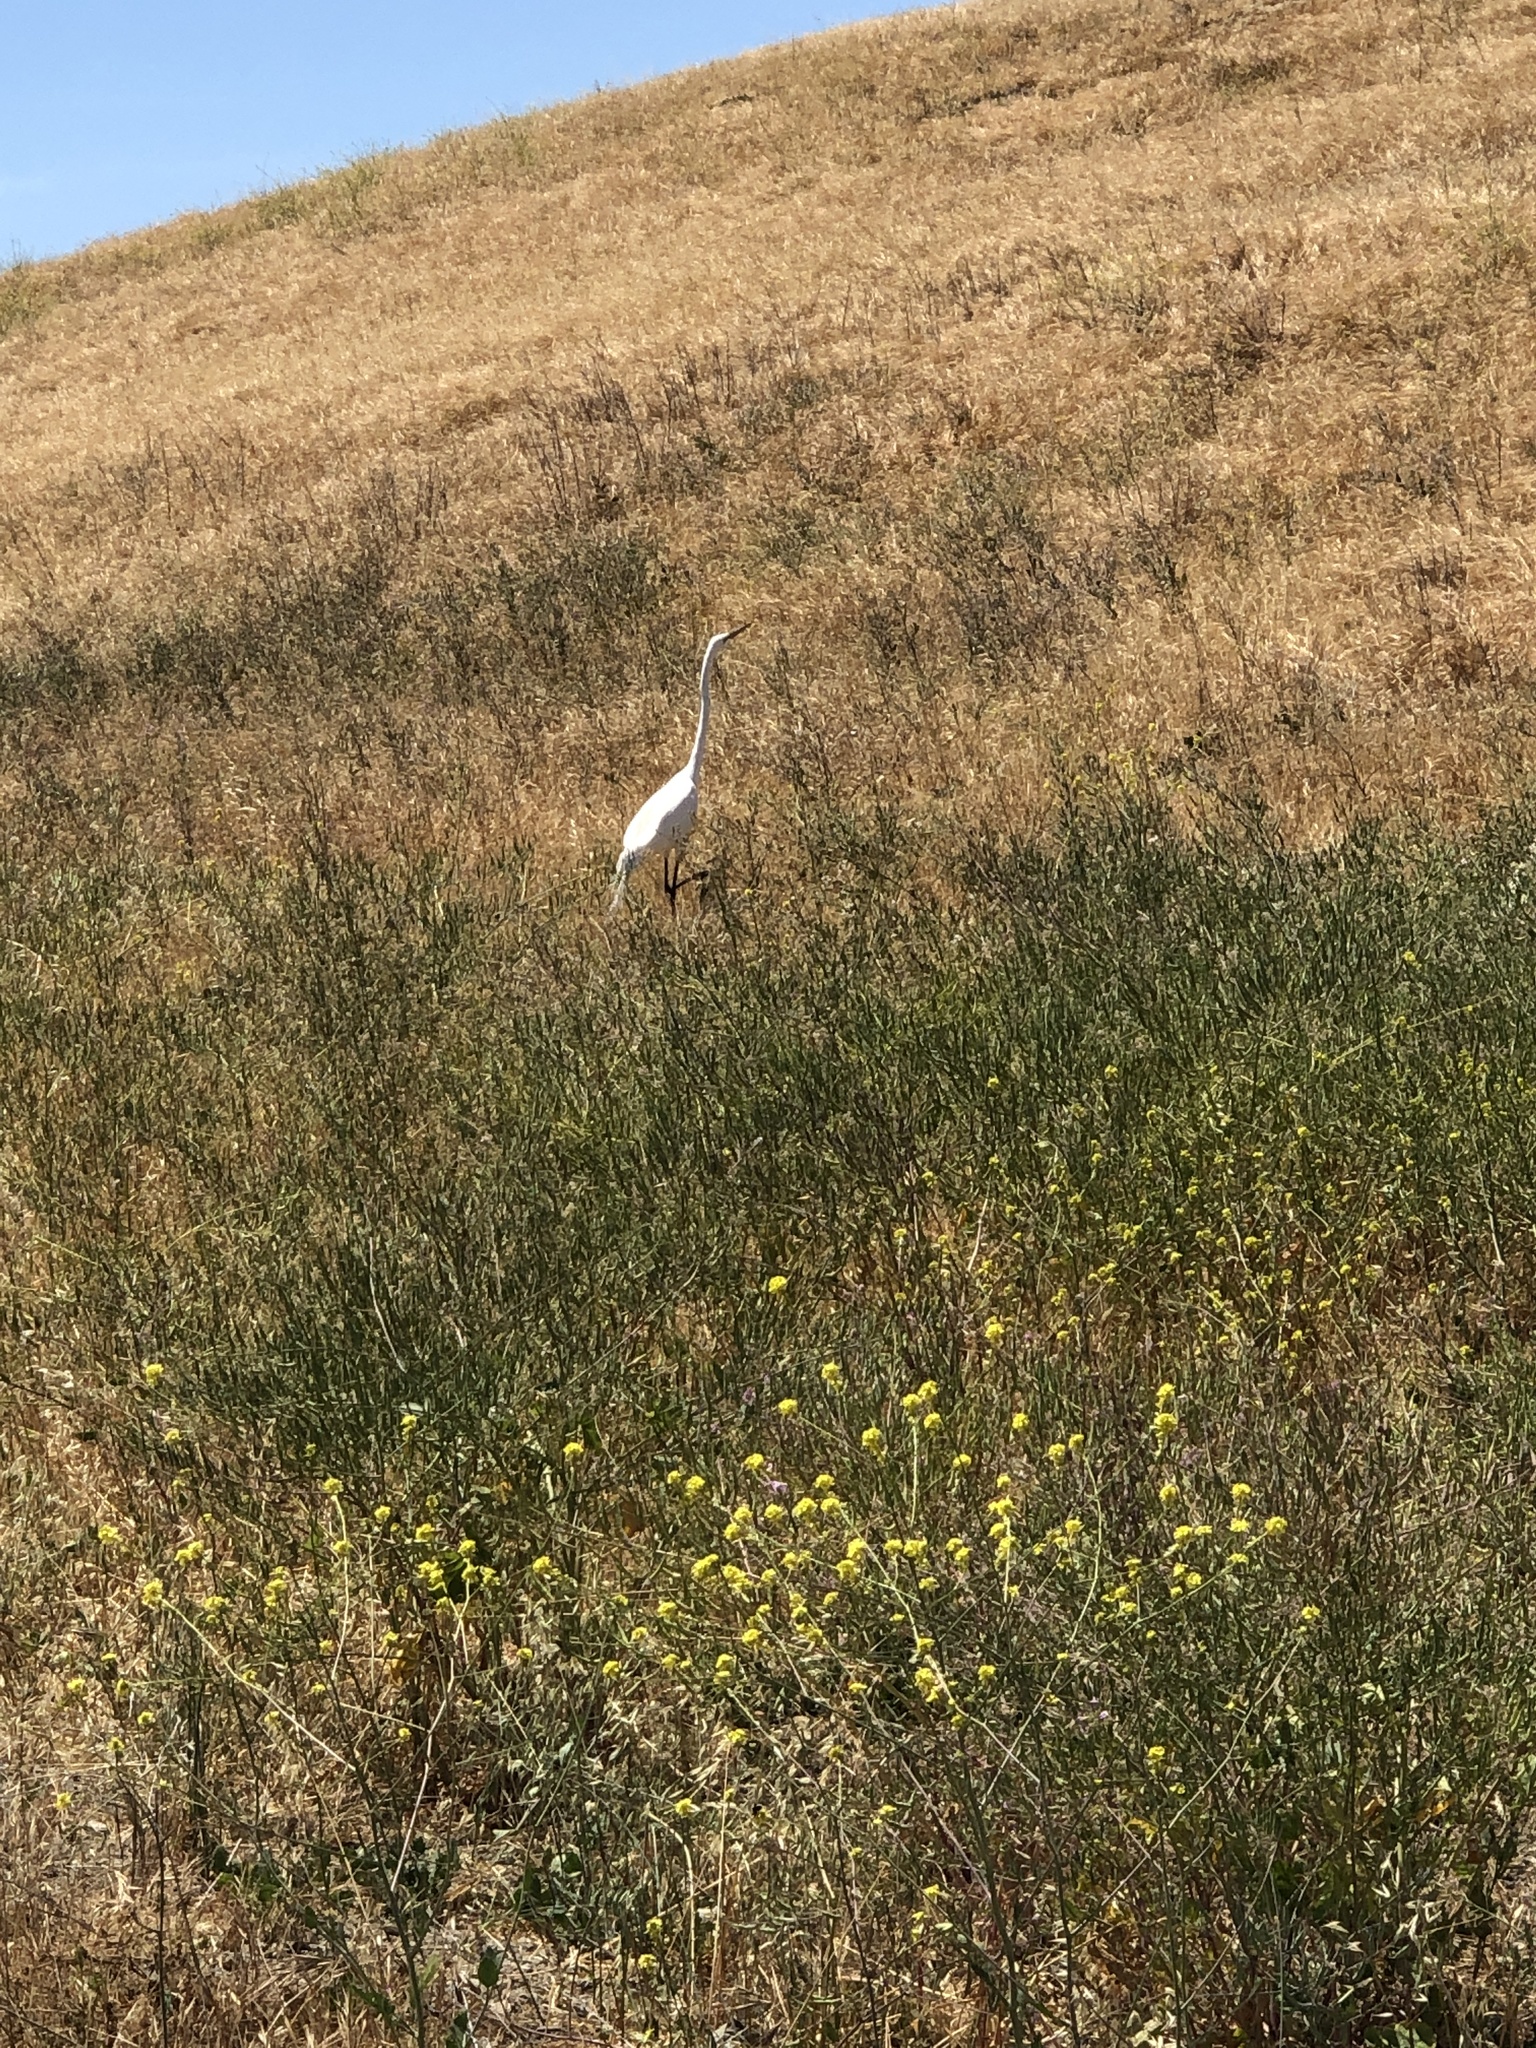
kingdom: Animalia
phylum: Chordata
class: Aves
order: Pelecaniformes
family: Ardeidae
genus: Ardea
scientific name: Ardea alba
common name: Great egret
